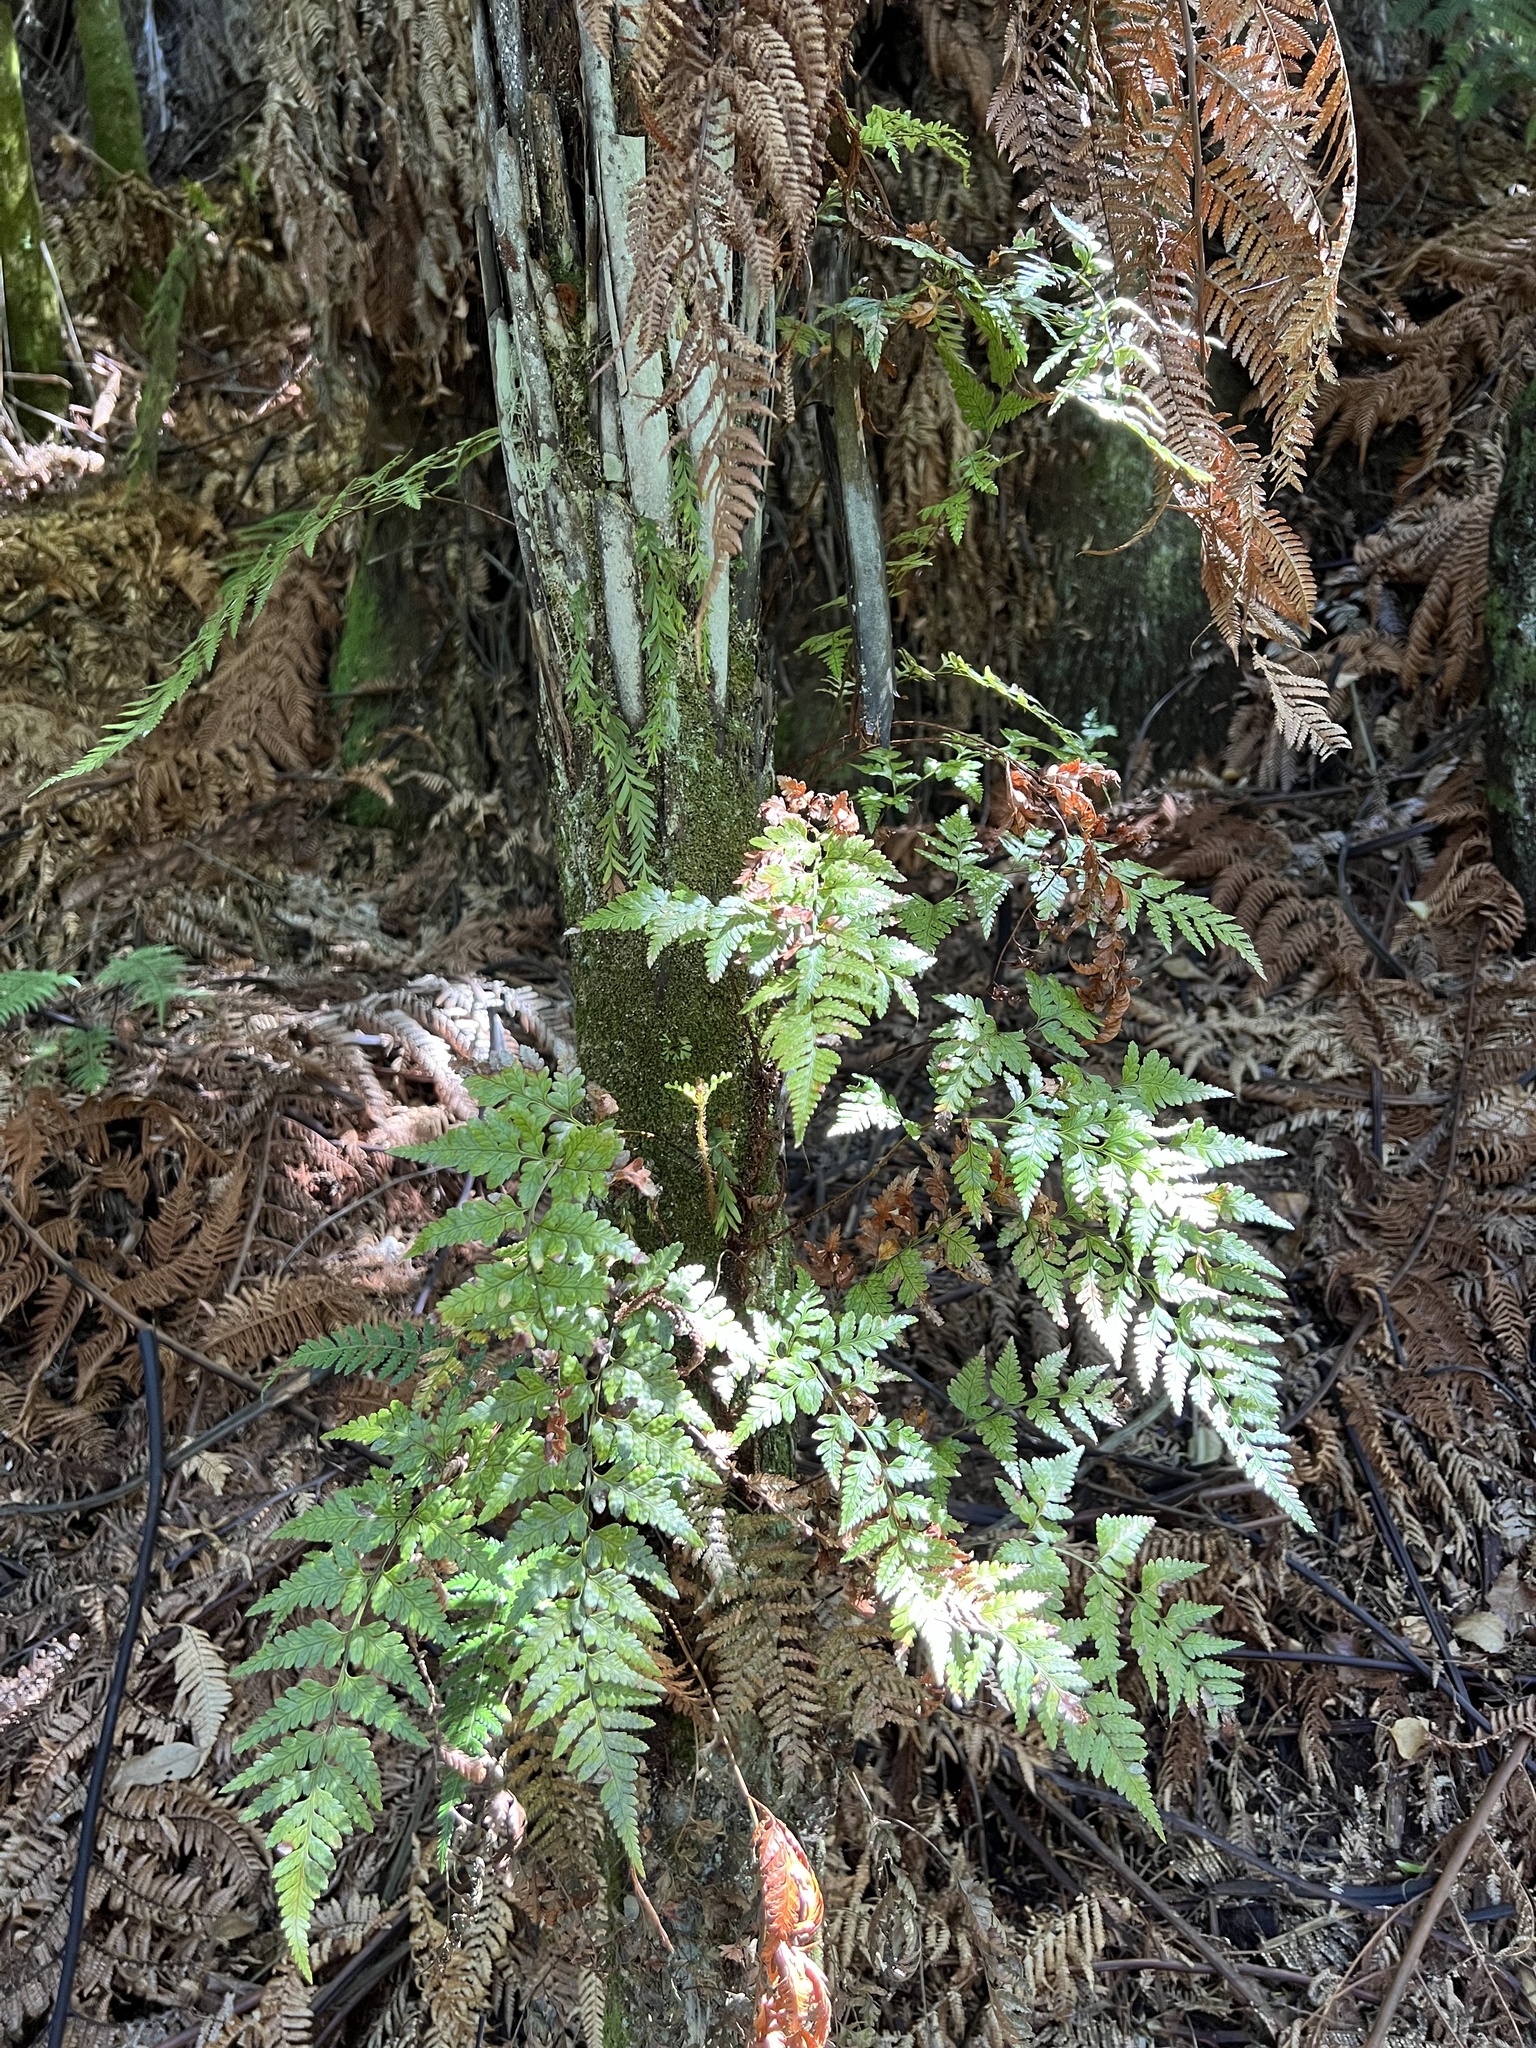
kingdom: Plantae
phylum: Tracheophyta
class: Polypodiopsida
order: Polypodiales
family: Dryopteridaceae
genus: Rumohra
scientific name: Rumohra adiantiformis
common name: Leather fern
